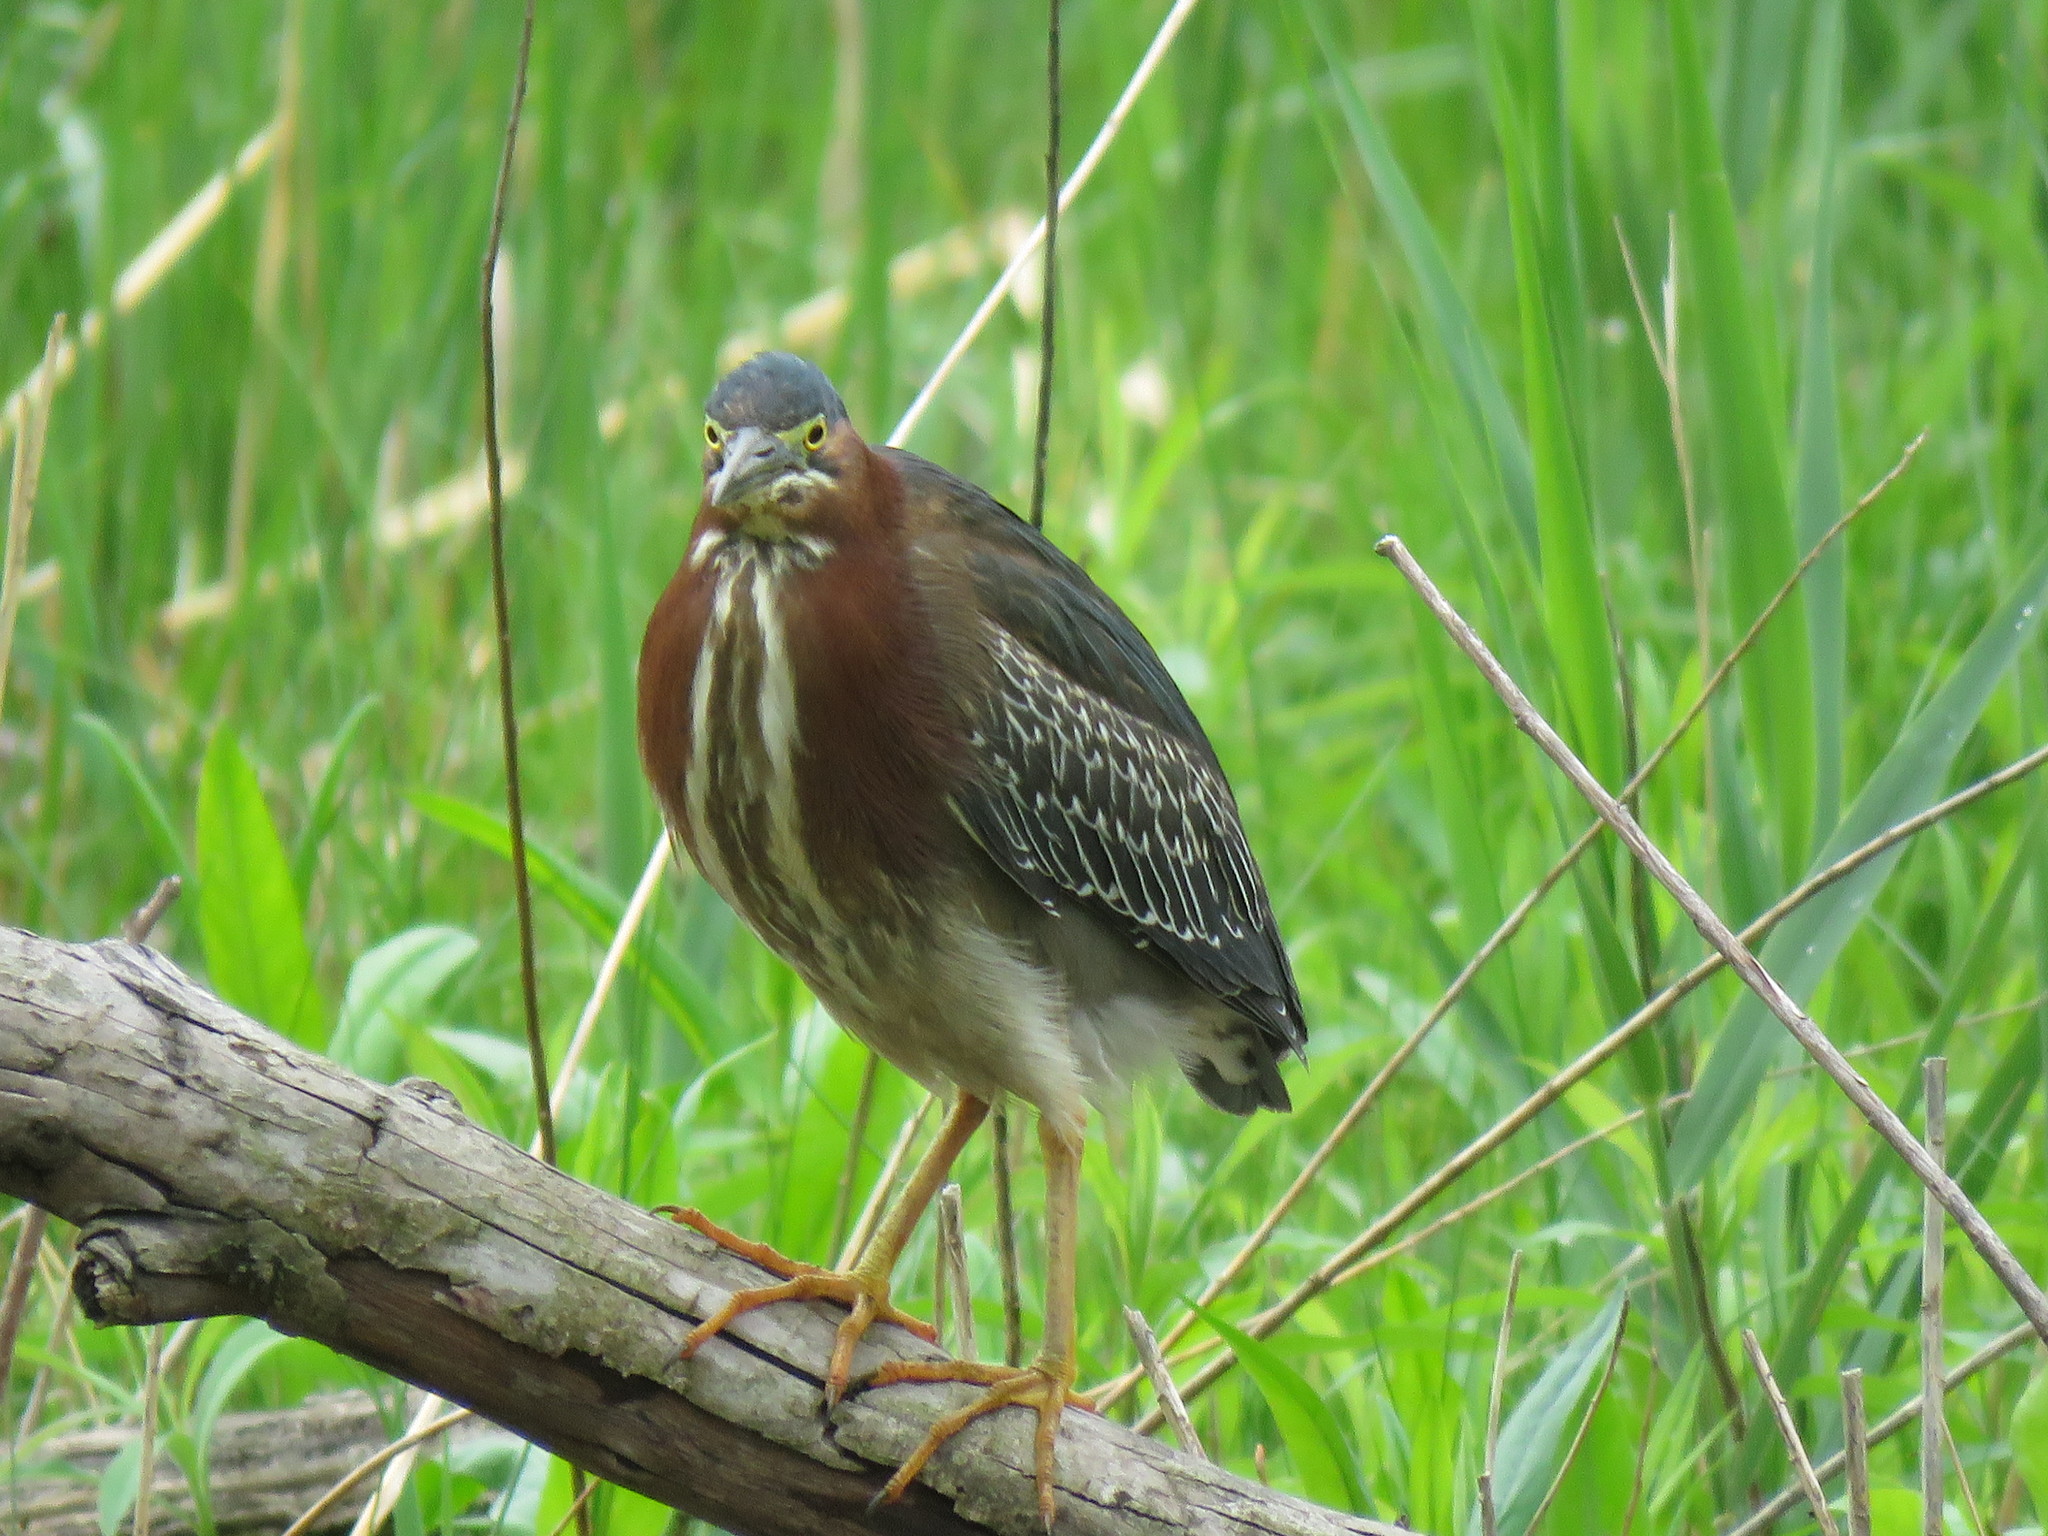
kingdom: Animalia
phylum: Chordata
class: Aves
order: Pelecaniformes
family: Ardeidae
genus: Butorides
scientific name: Butorides virescens
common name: Green heron
